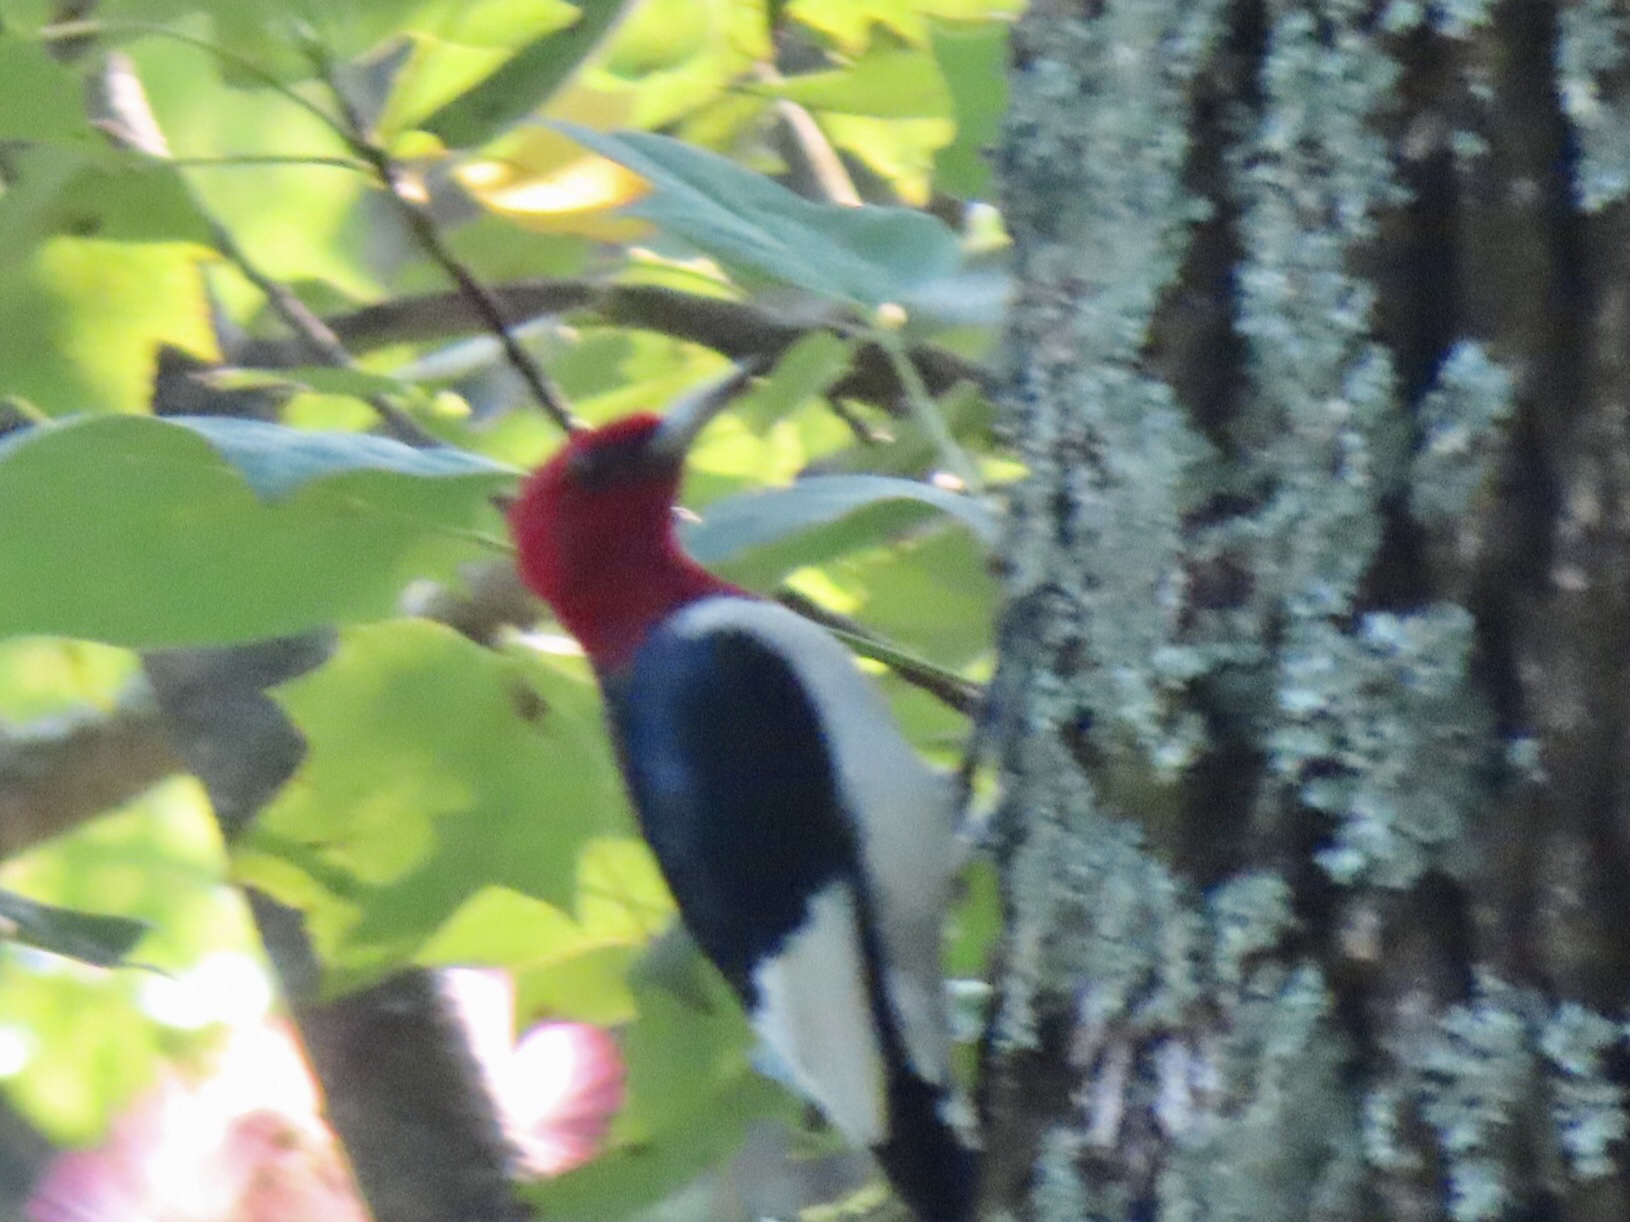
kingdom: Animalia
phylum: Chordata
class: Aves
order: Piciformes
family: Picidae
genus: Melanerpes
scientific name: Melanerpes erythrocephalus
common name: Red-headed woodpecker
